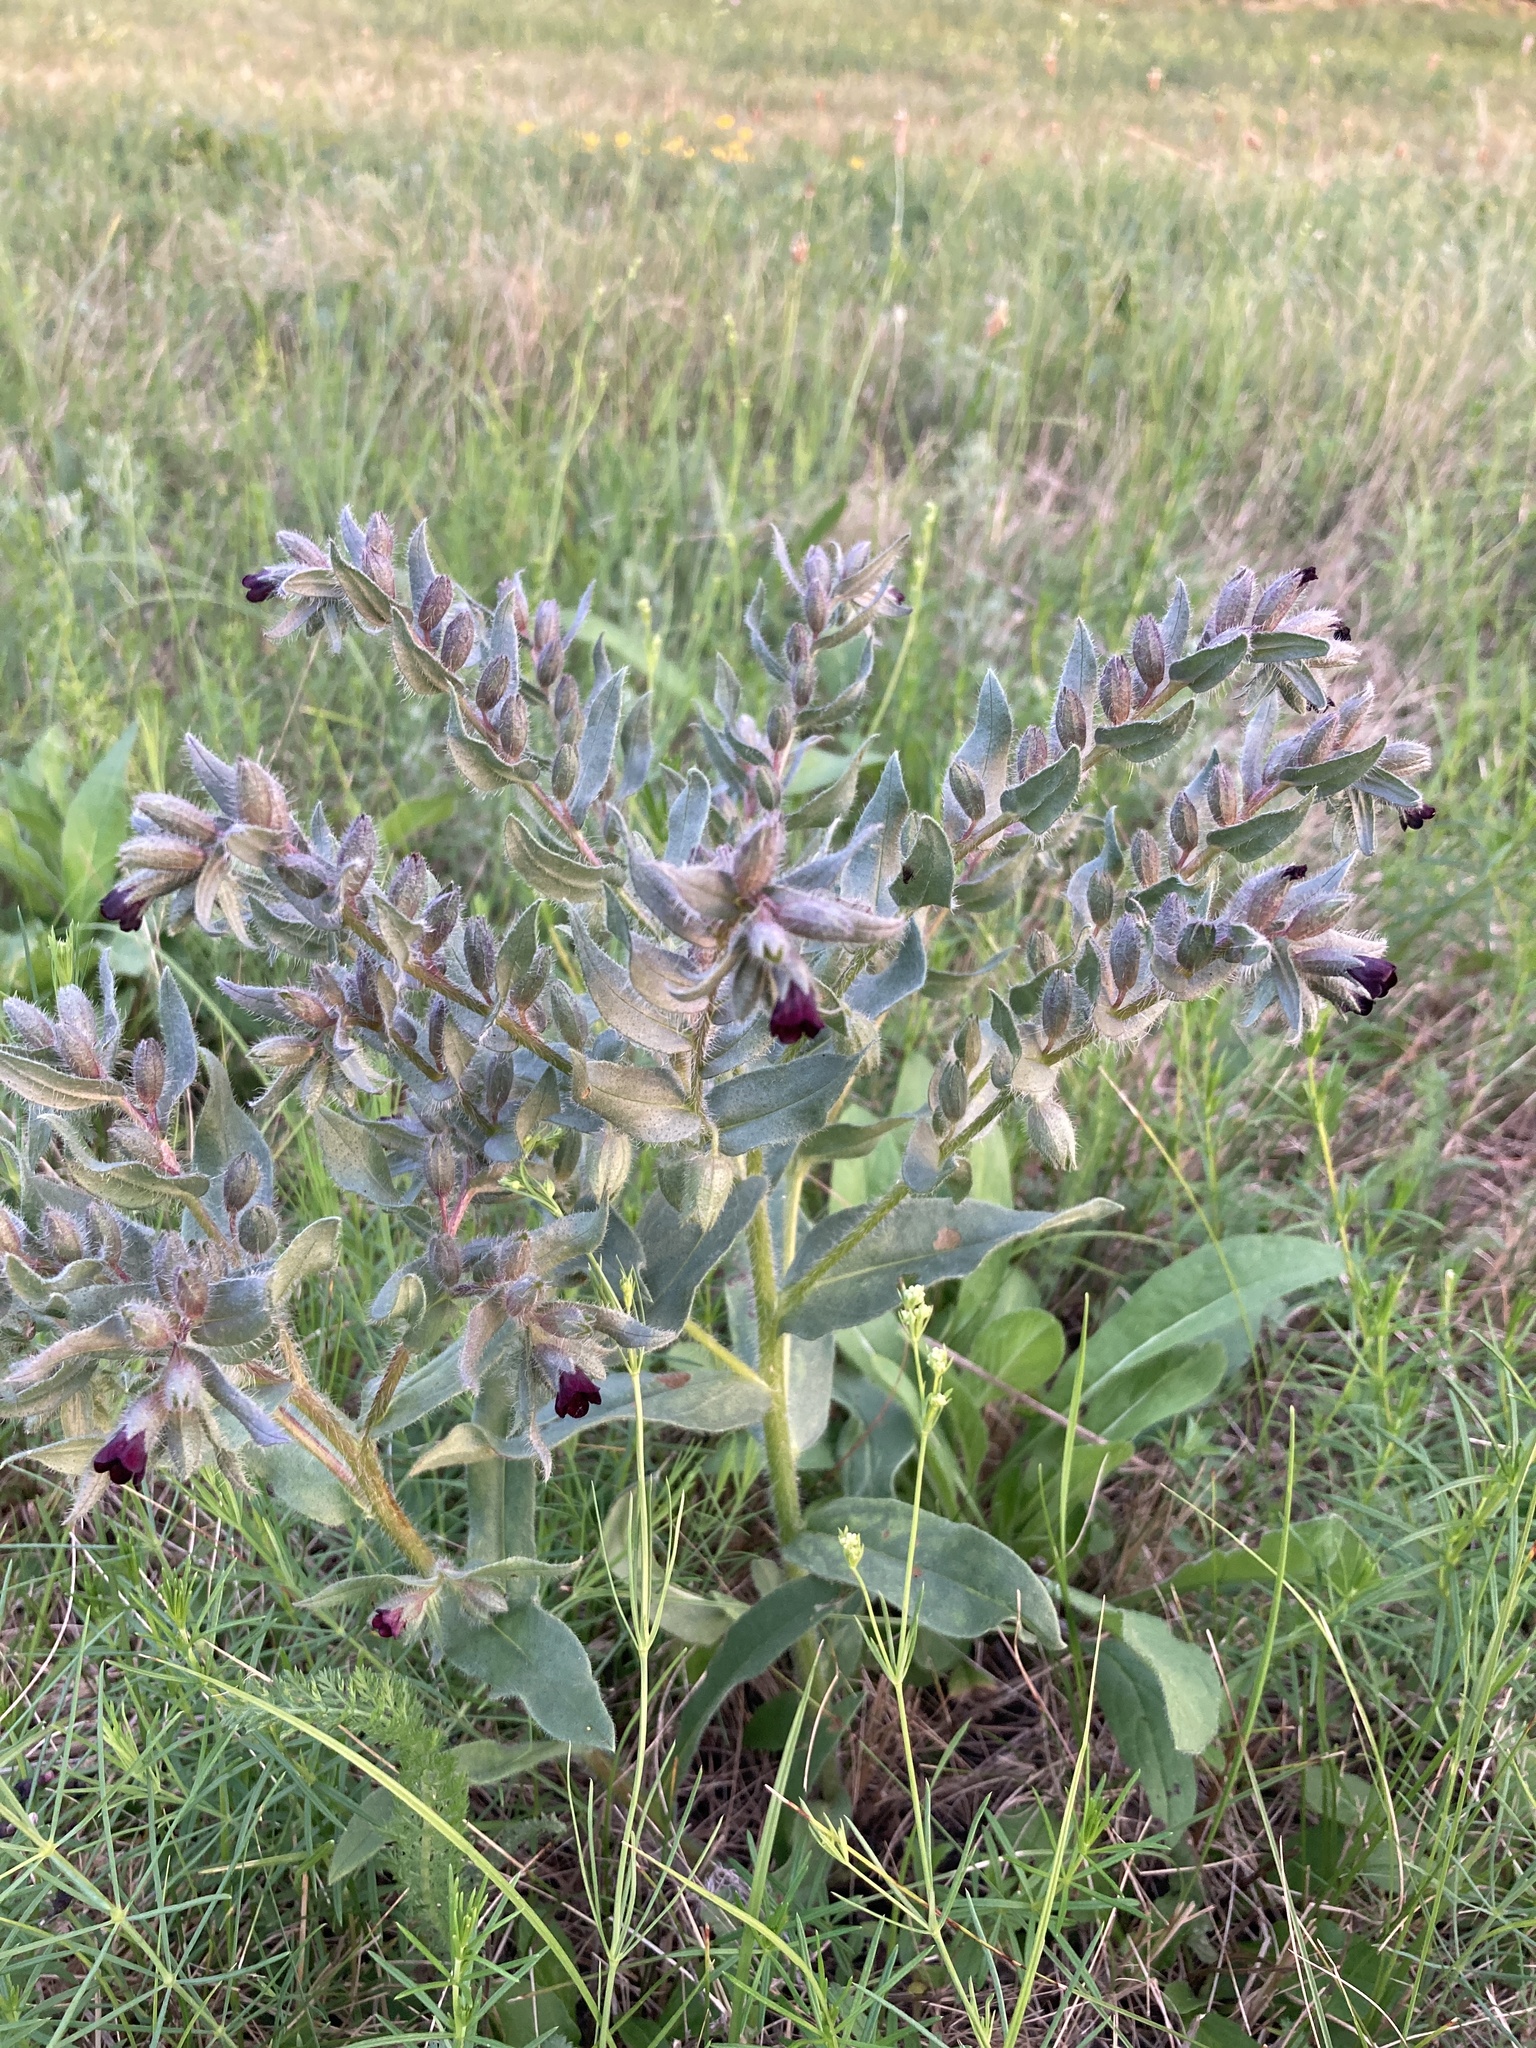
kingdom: Plantae
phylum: Tracheophyta
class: Magnoliopsida
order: Boraginales
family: Boraginaceae
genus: Nonea
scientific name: Nonea pulla
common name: Brown nonea
